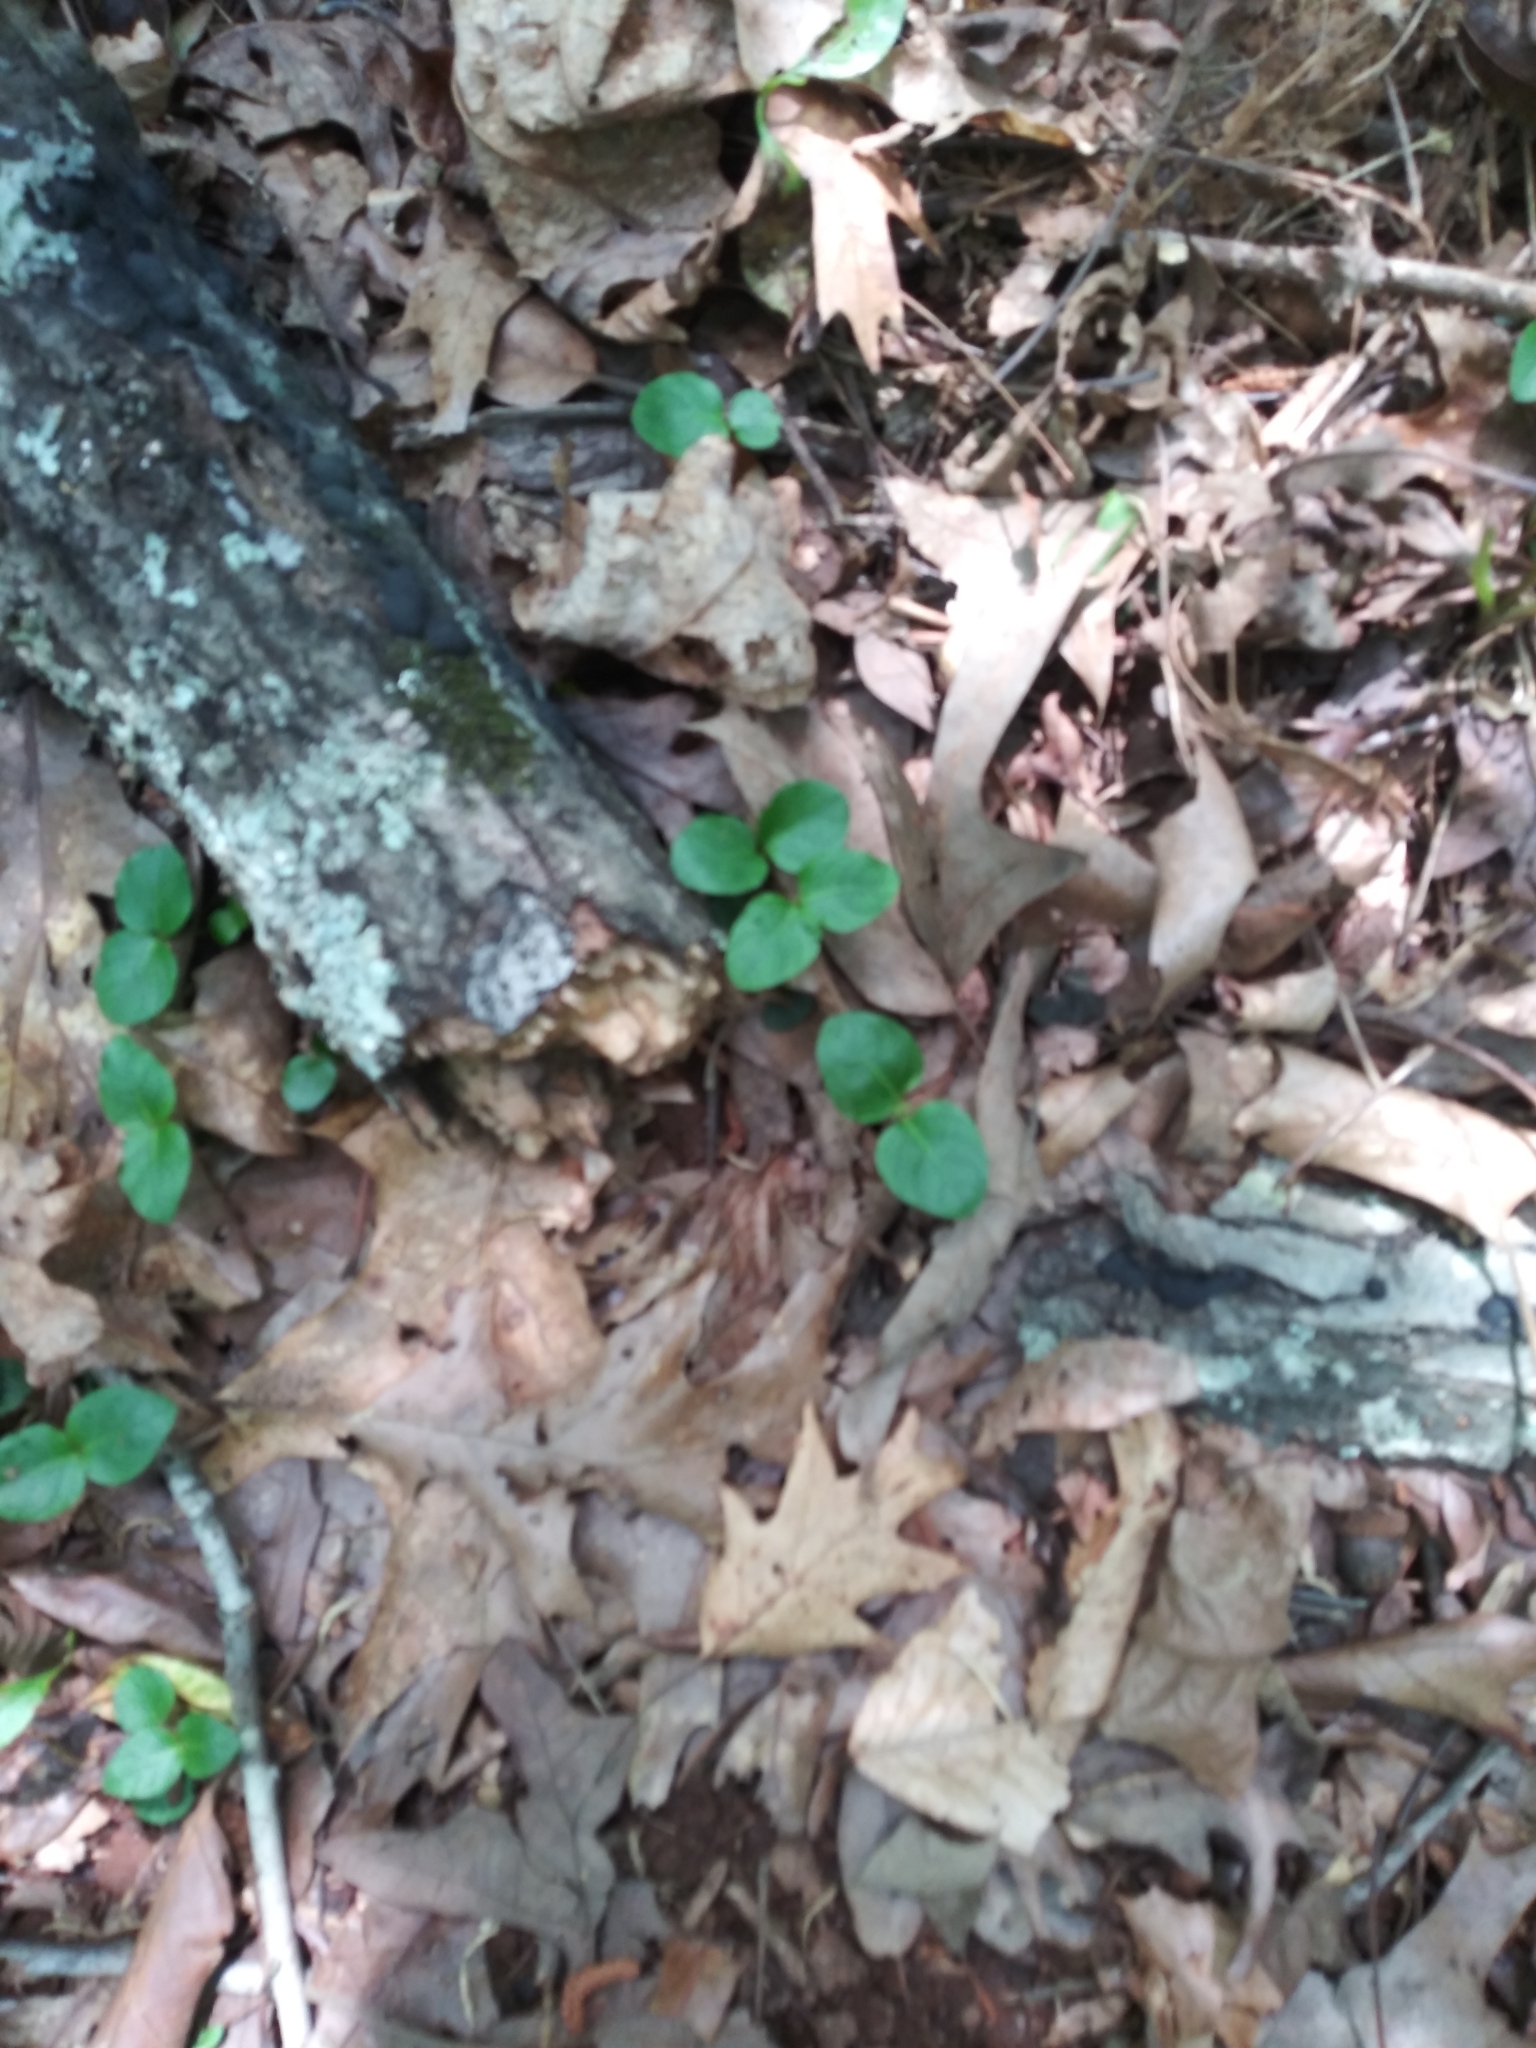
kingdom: Plantae
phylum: Tracheophyta
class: Magnoliopsida
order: Gentianales
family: Rubiaceae
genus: Mitchella
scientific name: Mitchella repens
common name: Partridge-berry
